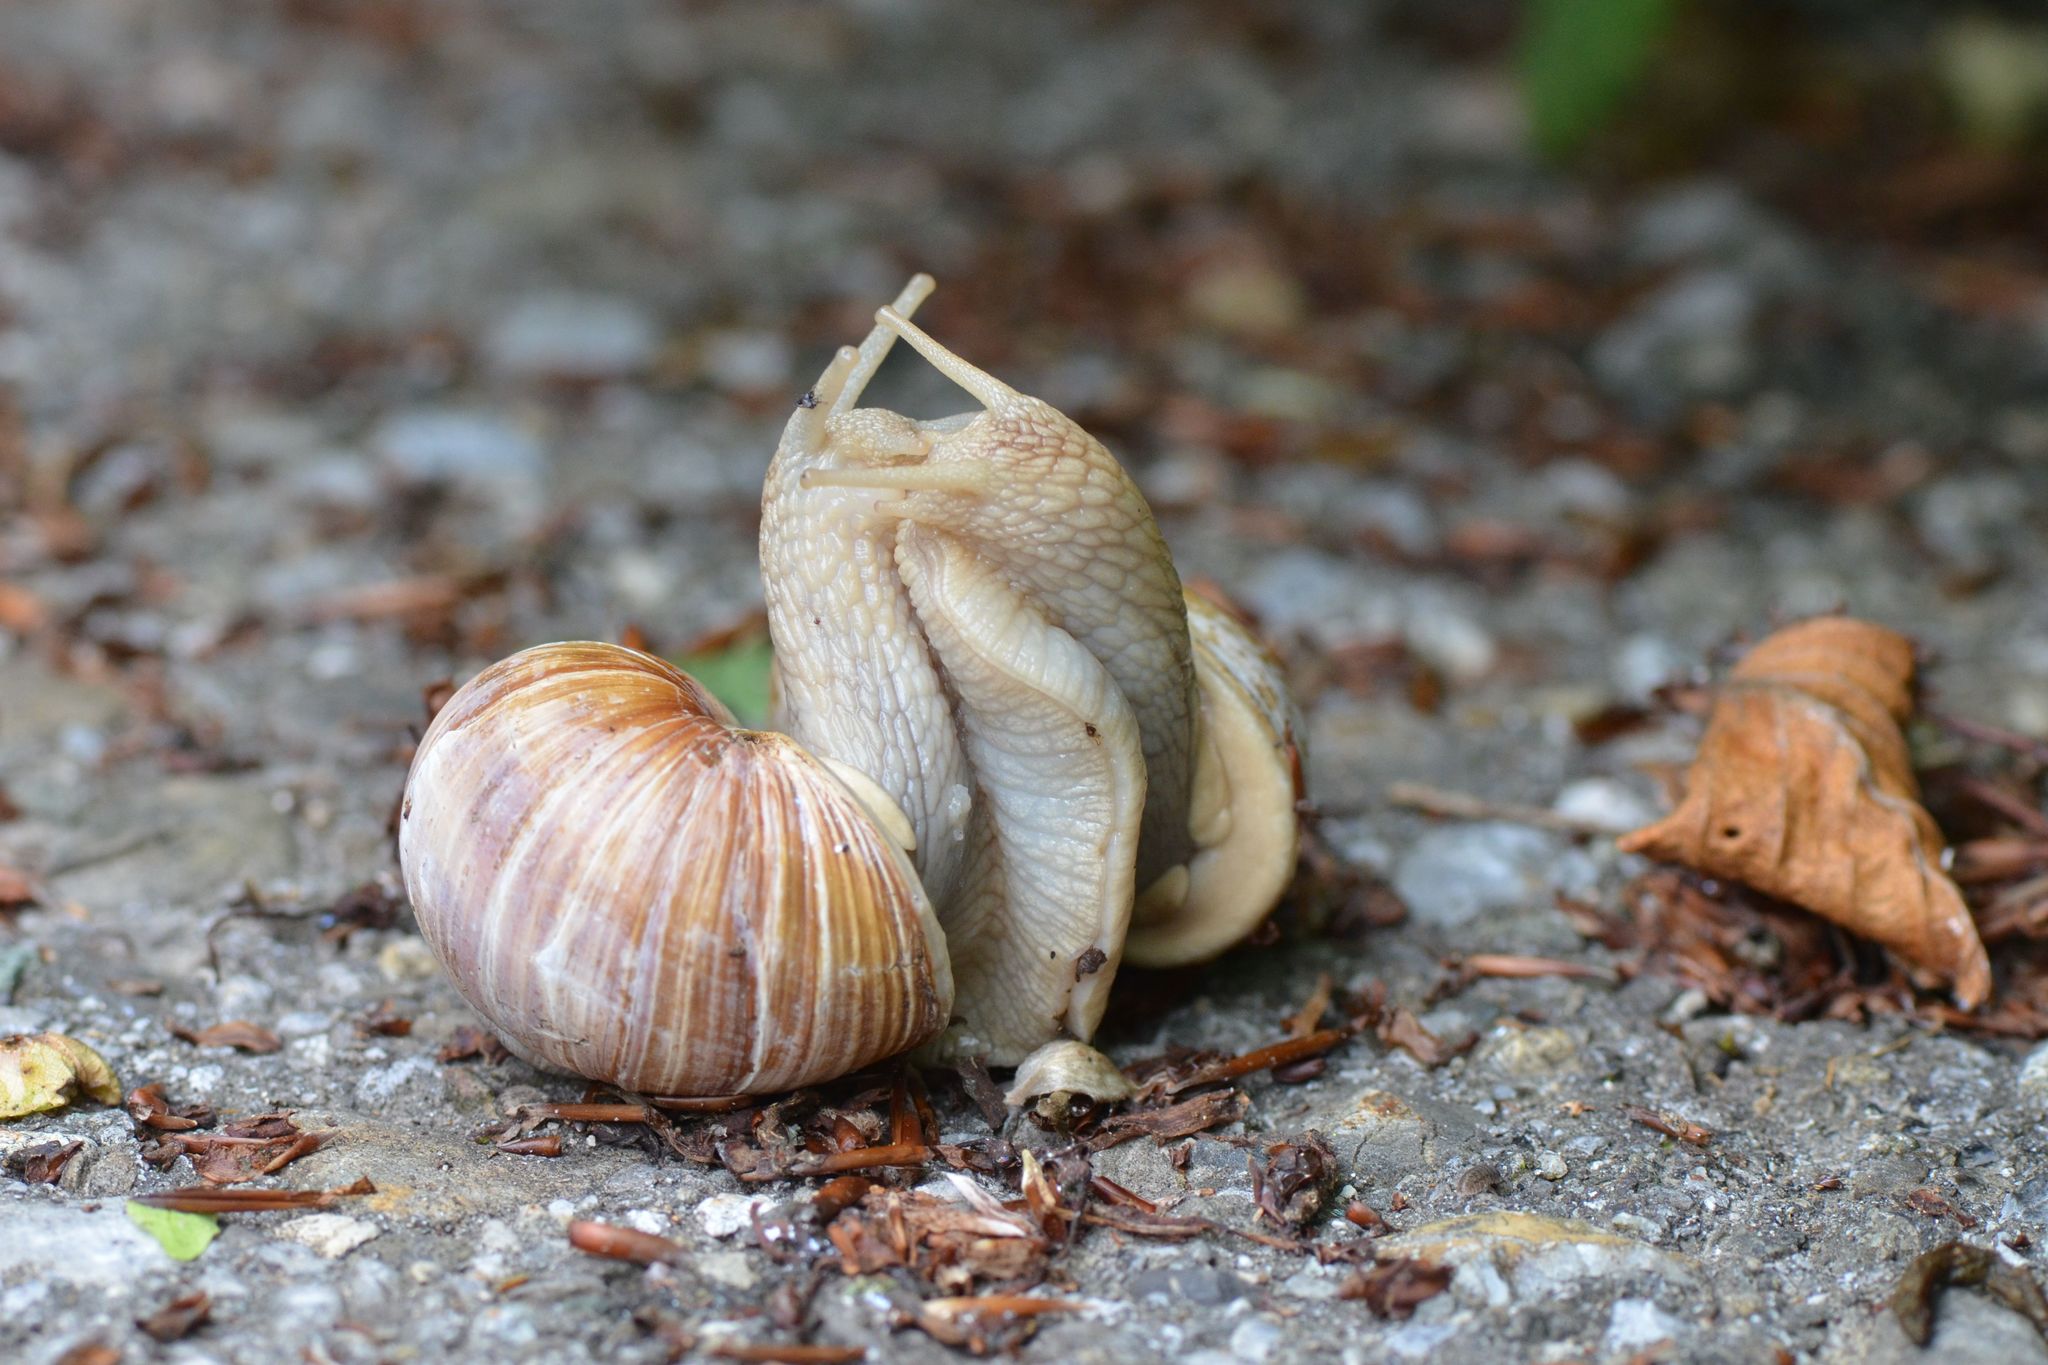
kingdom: Animalia
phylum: Mollusca
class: Gastropoda
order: Stylommatophora
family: Helicidae
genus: Helix
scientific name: Helix pomatia
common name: Roman snail
